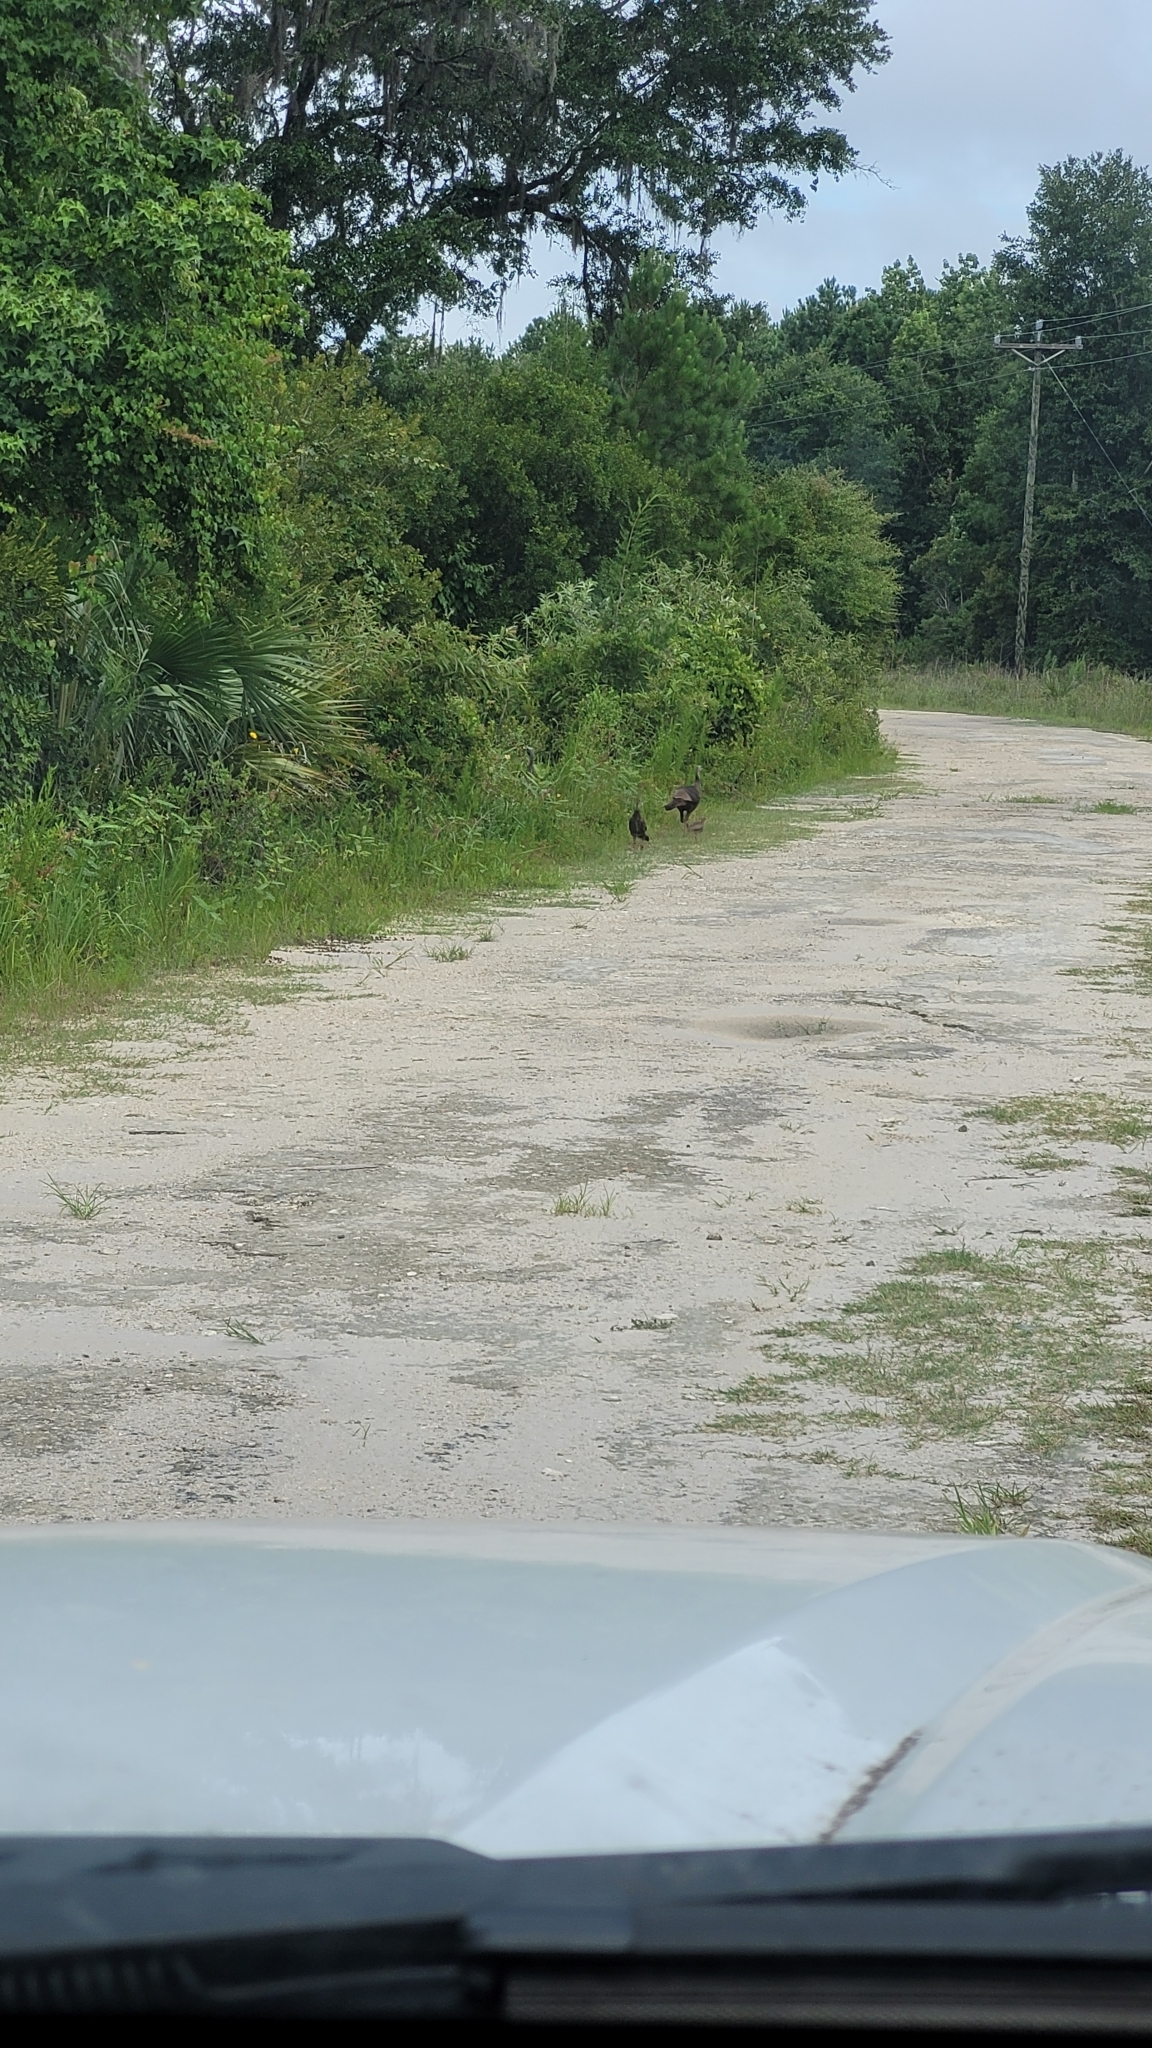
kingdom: Animalia
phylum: Chordata
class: Aves
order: Galliformes
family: Phasianidae
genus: Meleagris
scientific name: Meleagris gallopavo
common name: Wild turkey
